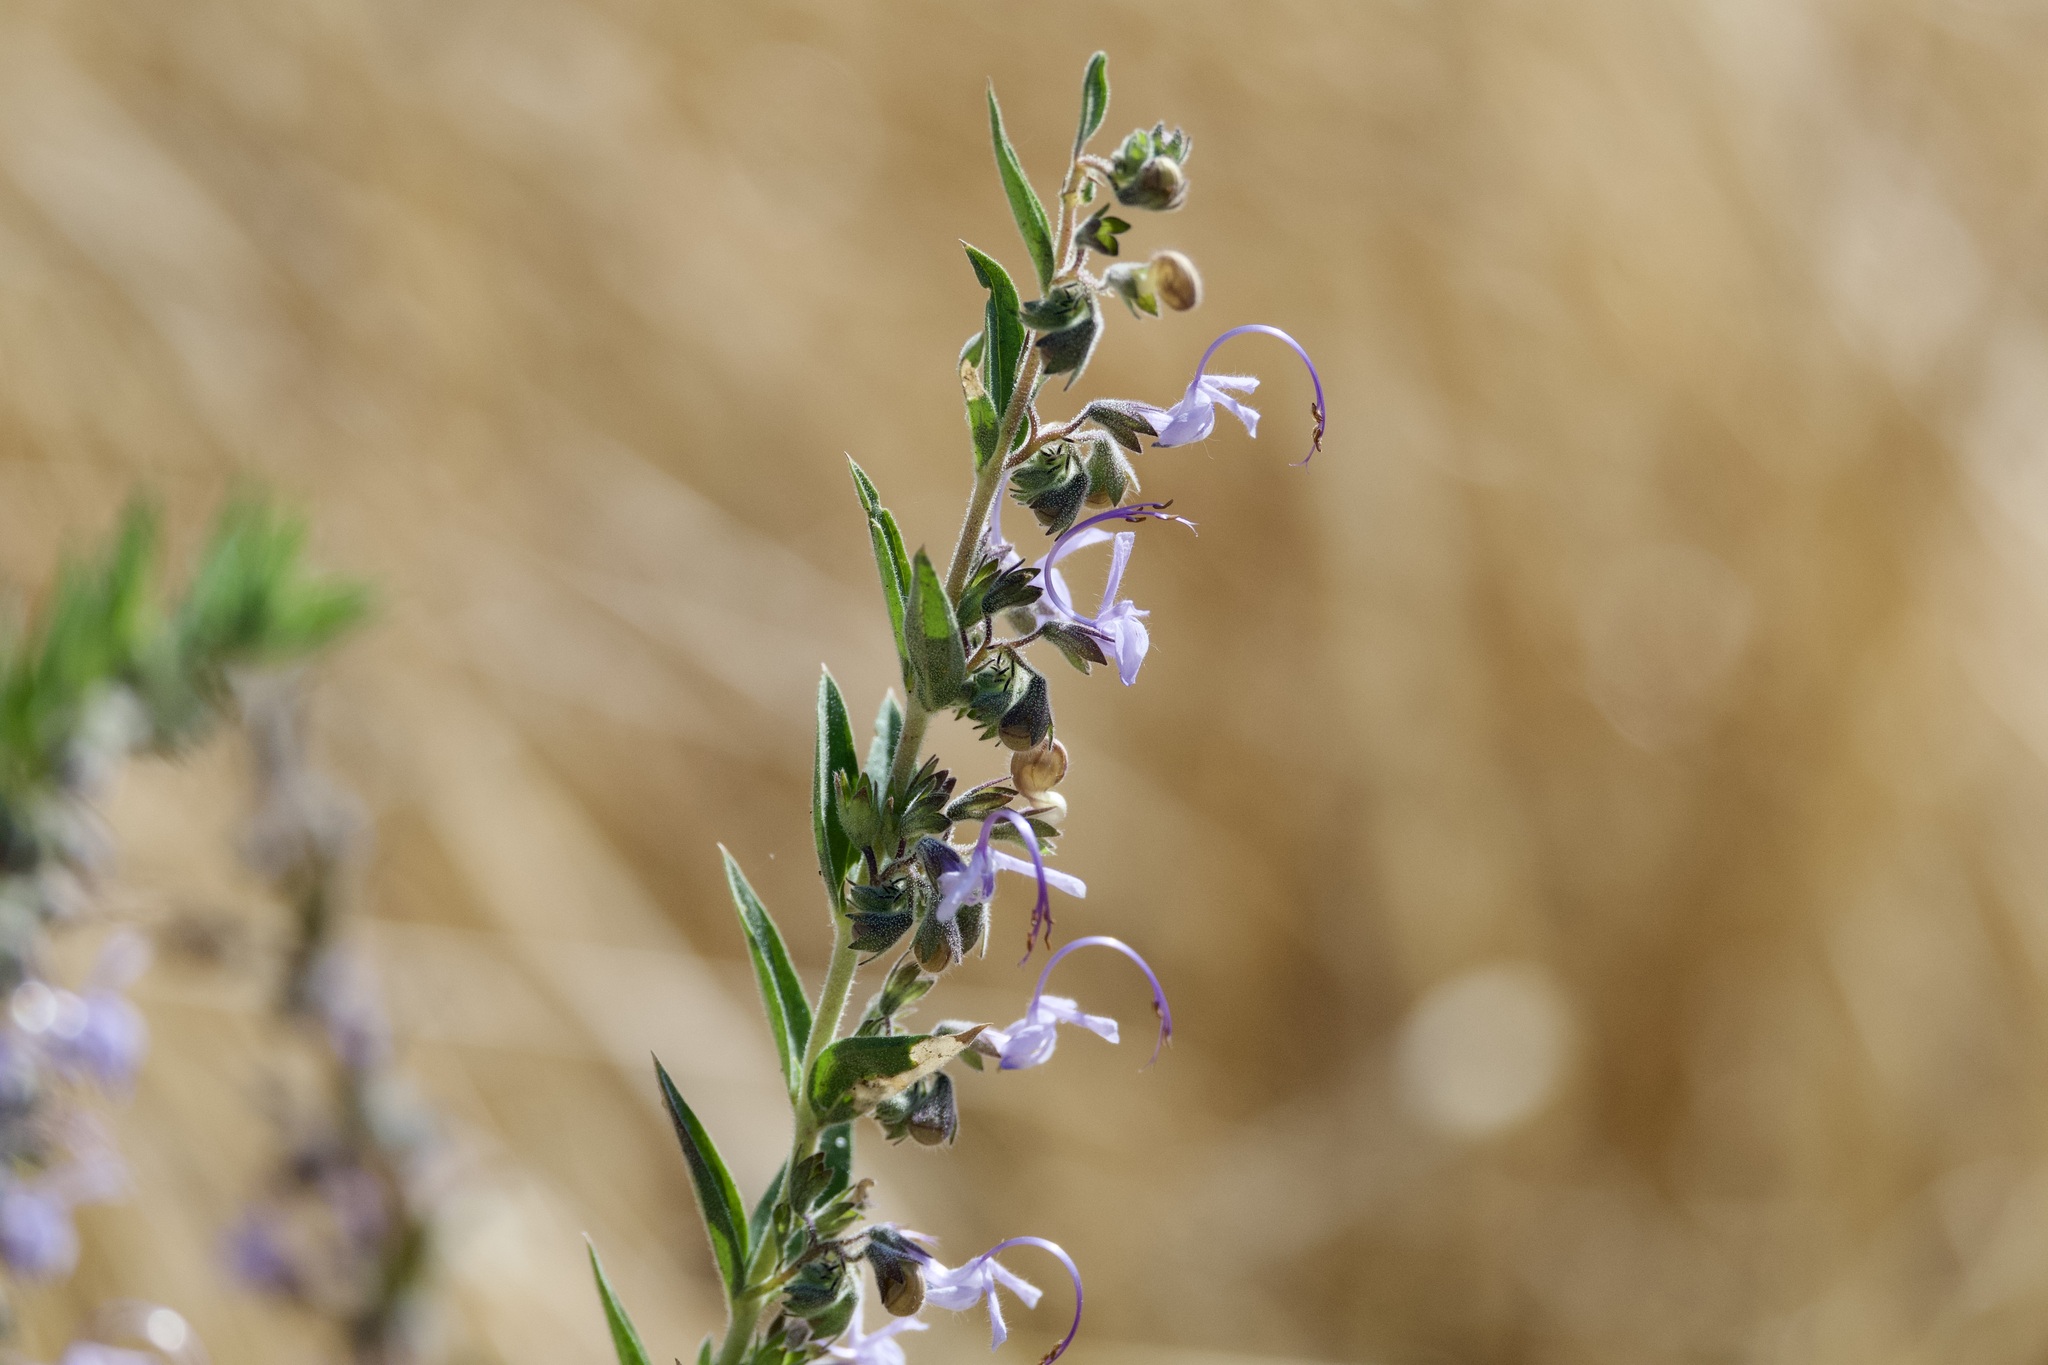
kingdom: Plantae
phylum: Tracheophyta
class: Magnoliopsida
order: Lamiales
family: Lamiaceae
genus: Trichostema
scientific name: Trichostema lanceolatum
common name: Vinegar-weed
